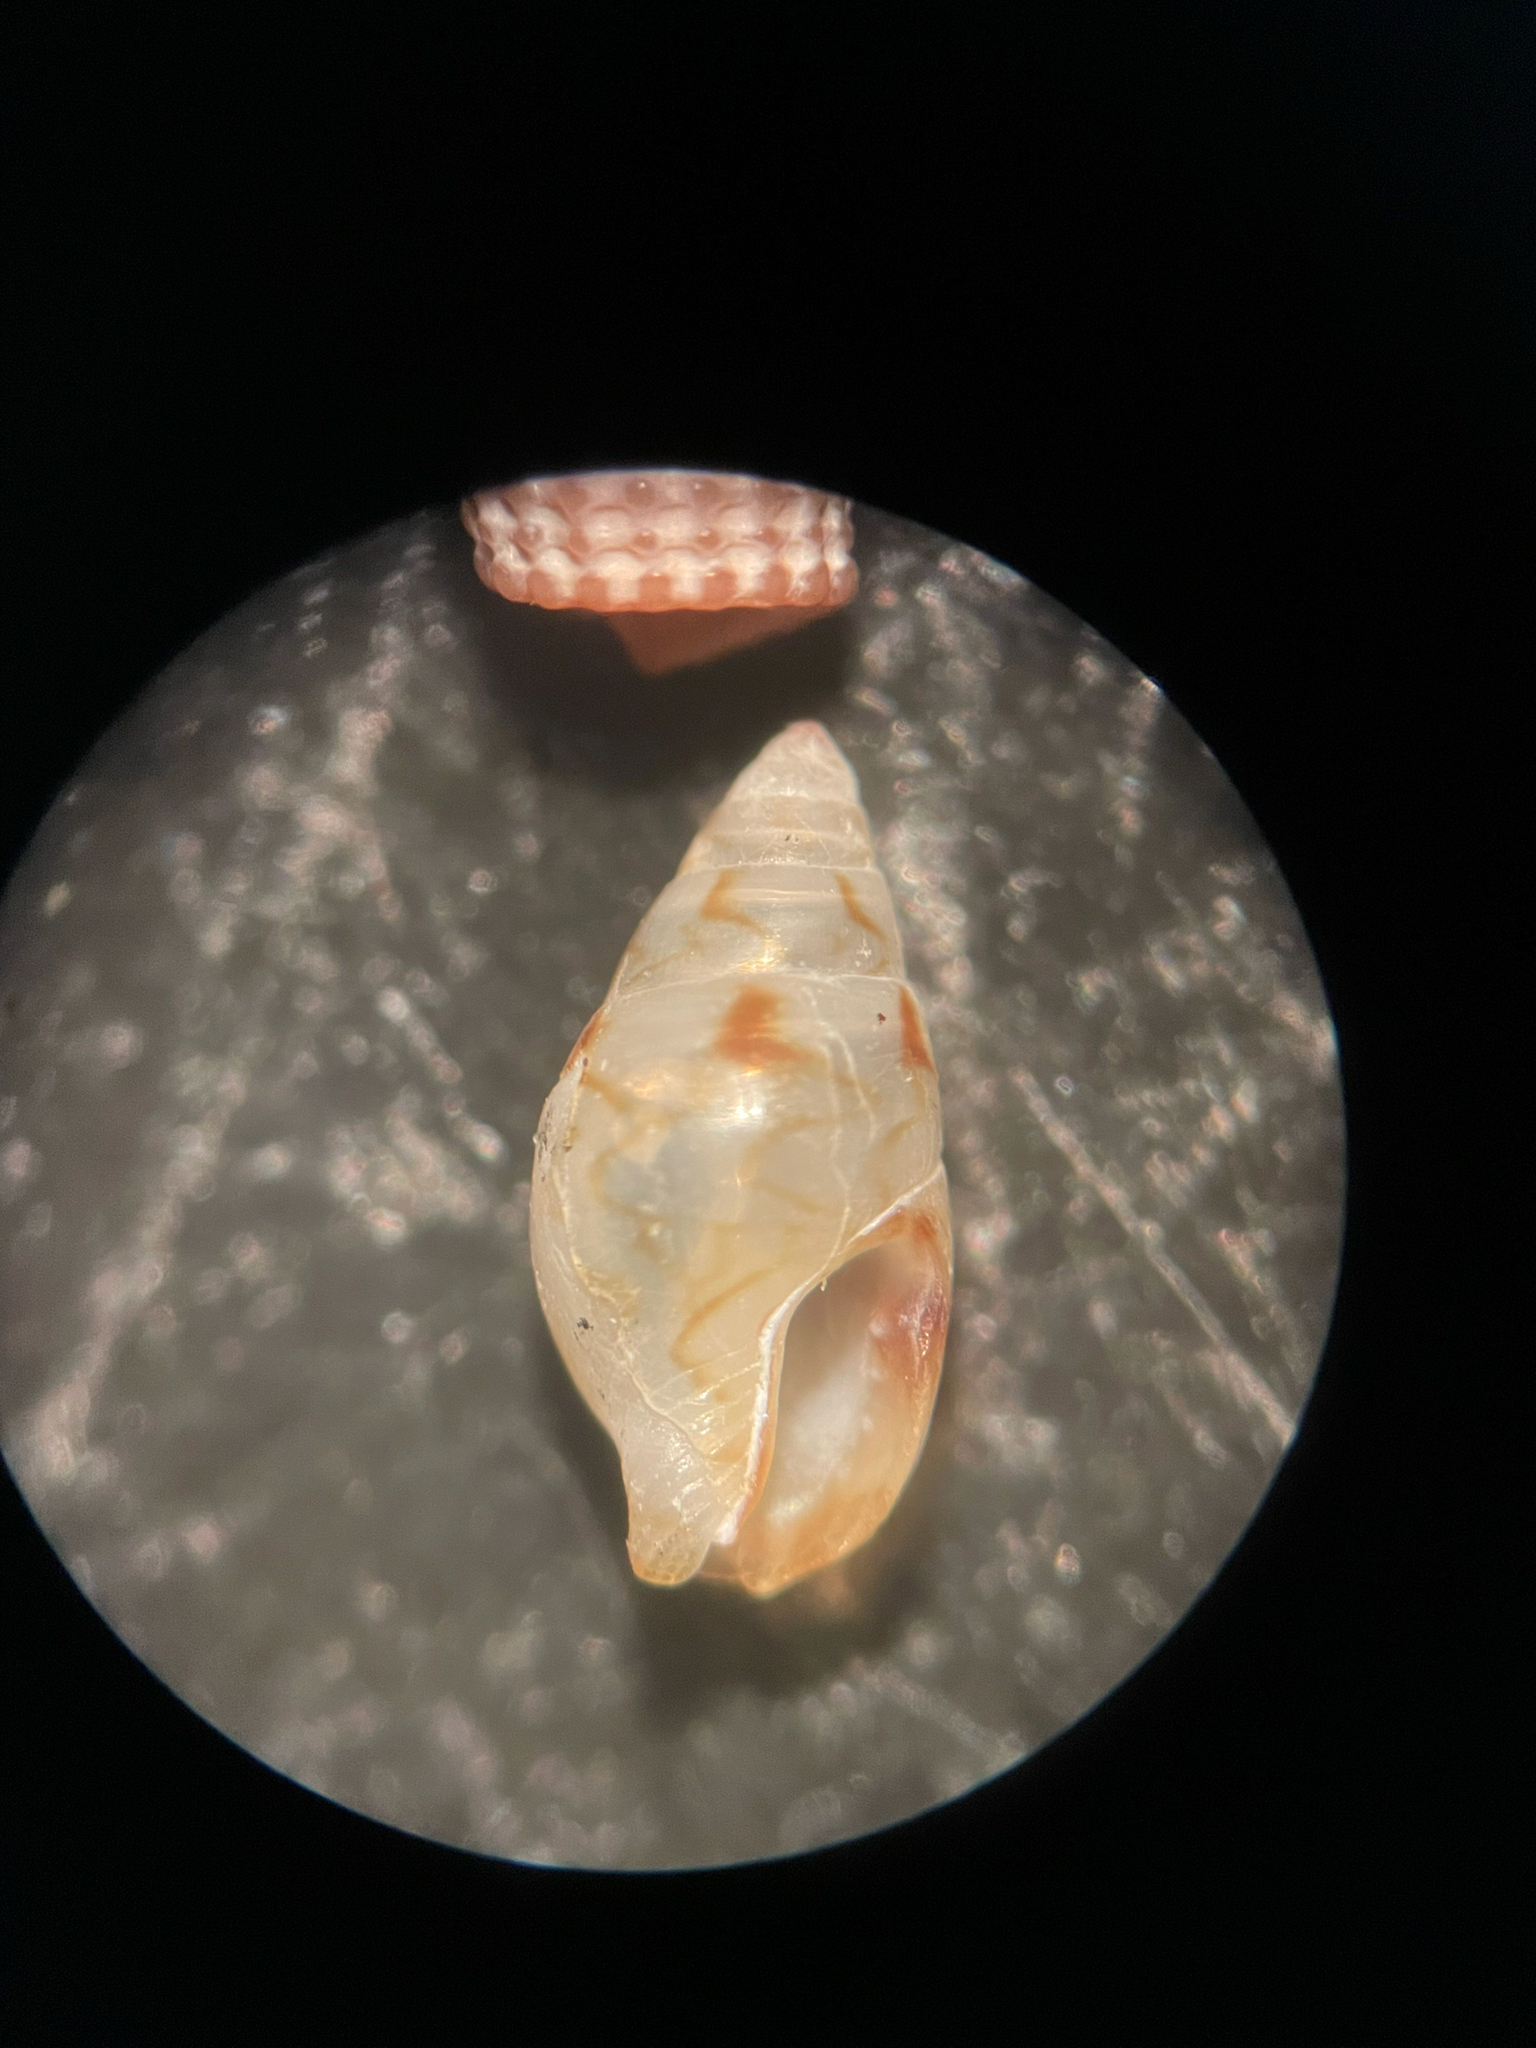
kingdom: Animalia
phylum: Mollusca
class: Gastropoda
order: Neogastropoda
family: Columbellidae
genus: Astyris
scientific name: Astyris lunata
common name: Lunar dovesnail
